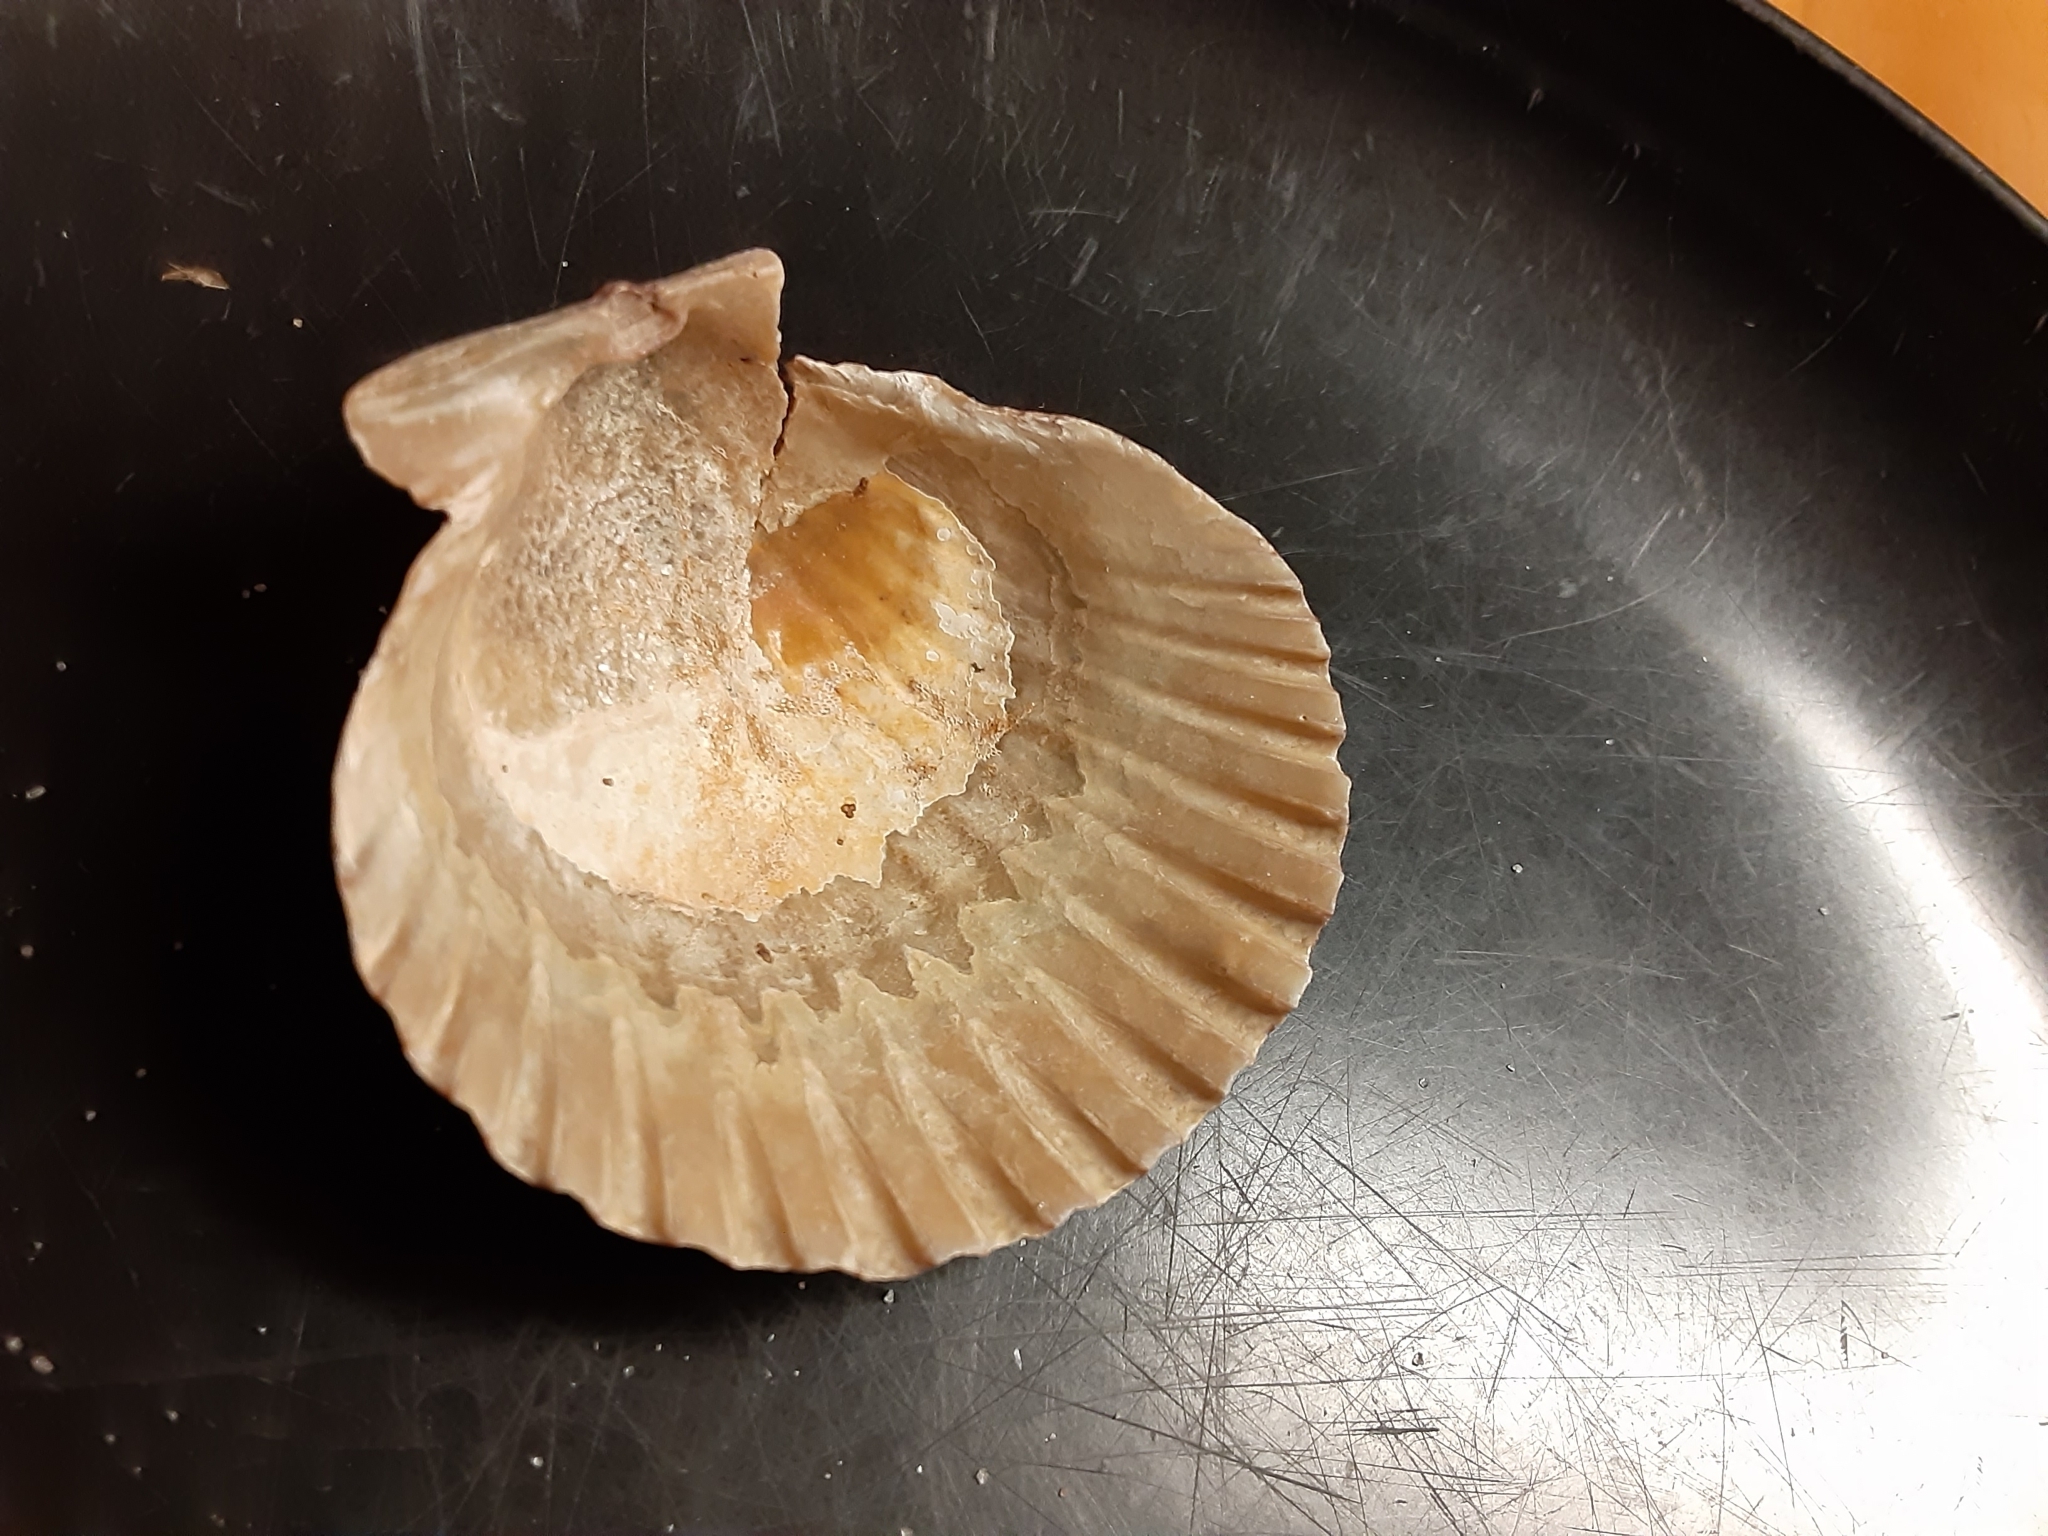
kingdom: Animalia
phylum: Mollusca
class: Bivalvia
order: Pectinida
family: Pectinidae
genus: Argopecten
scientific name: Argopecten irradians
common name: Atlantic bay scallop
